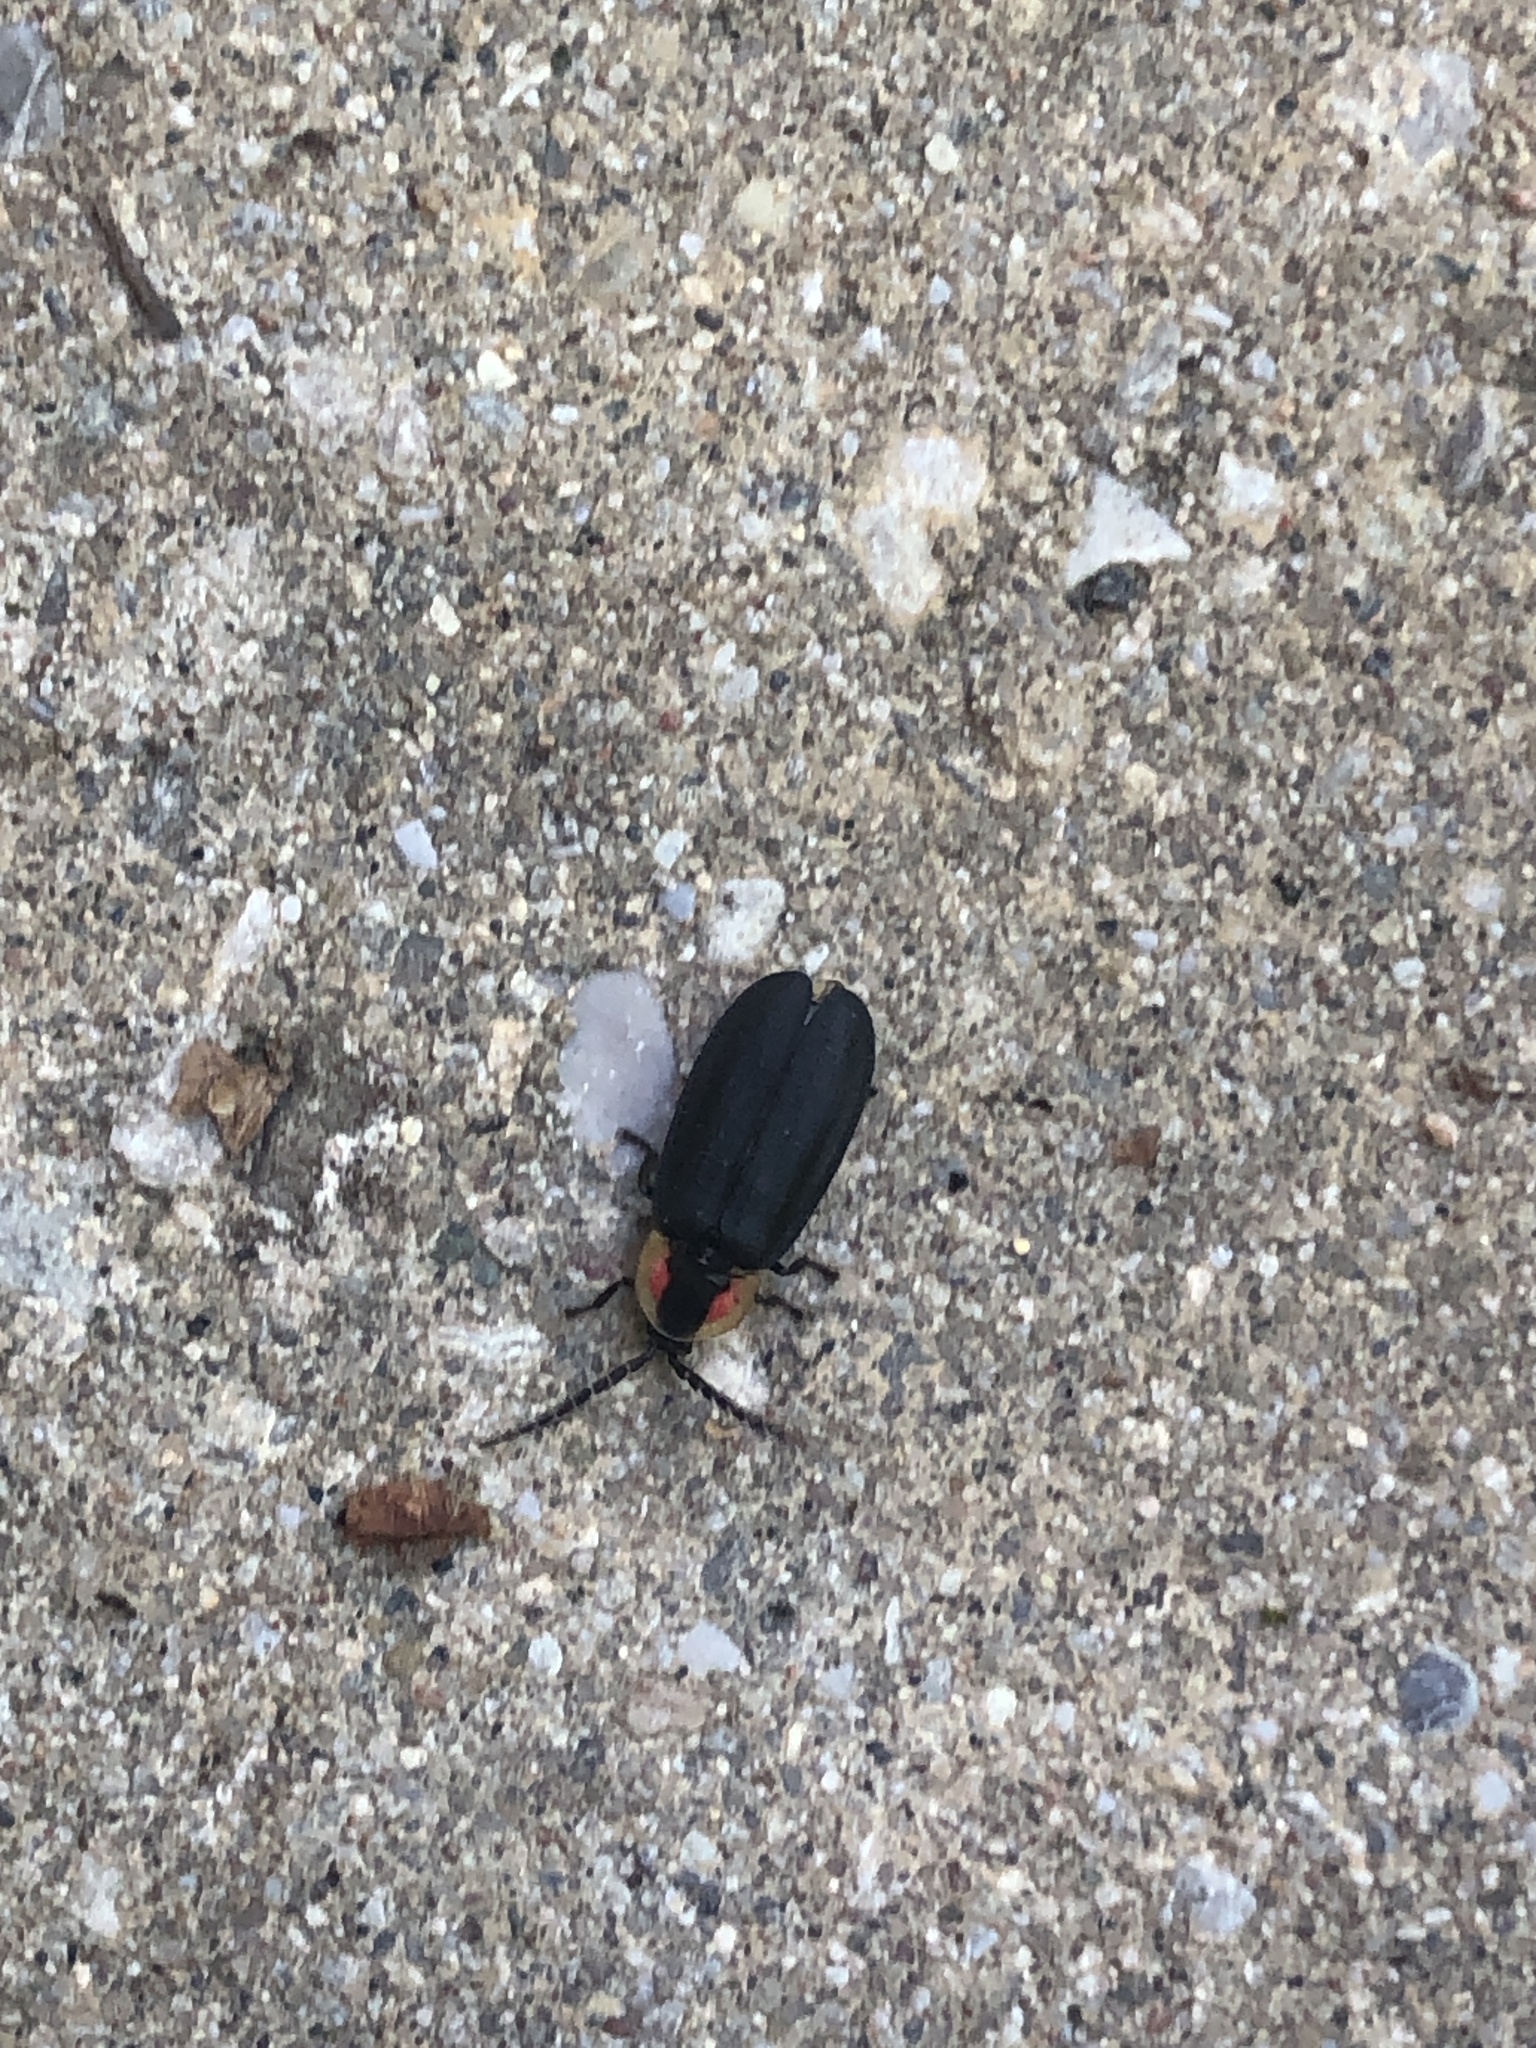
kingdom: Animalia
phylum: Arthropoda
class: Insecta
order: Coleoptera
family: Lampyridae
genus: Lucidota
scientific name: Lucidota atra
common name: Black firefly
